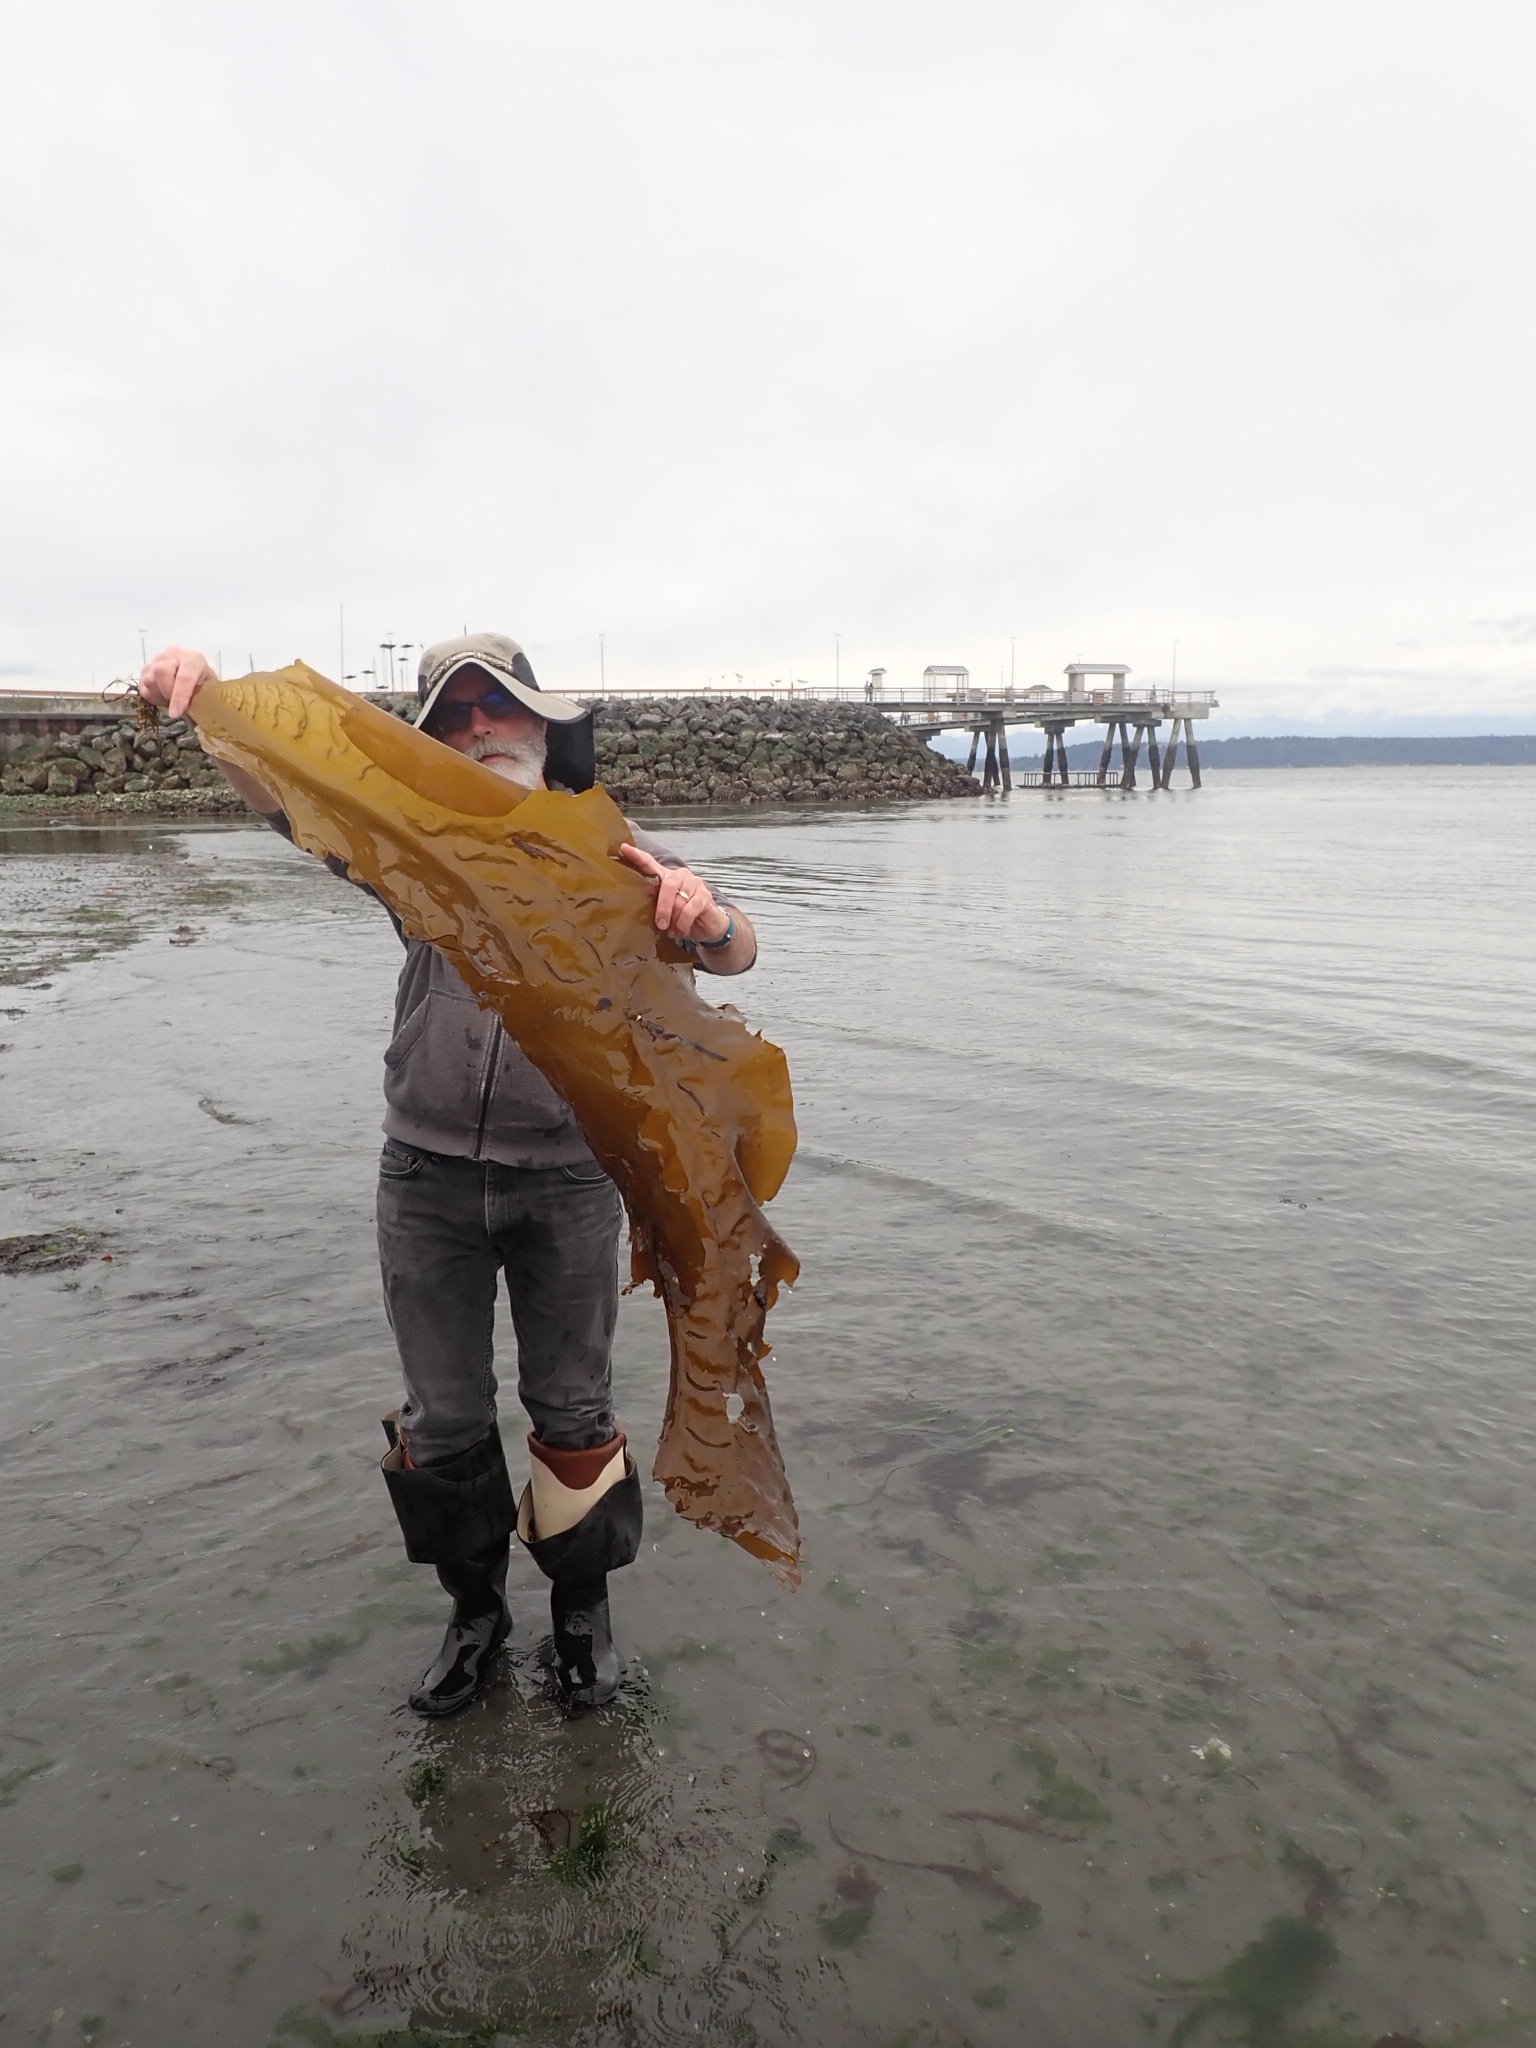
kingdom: Chromista
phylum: Ochrophyta
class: Phaeophyceae
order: Laminariales
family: Laminariaceae
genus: Saccharina
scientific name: Saccharina latissima
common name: Poor man's weather glass
